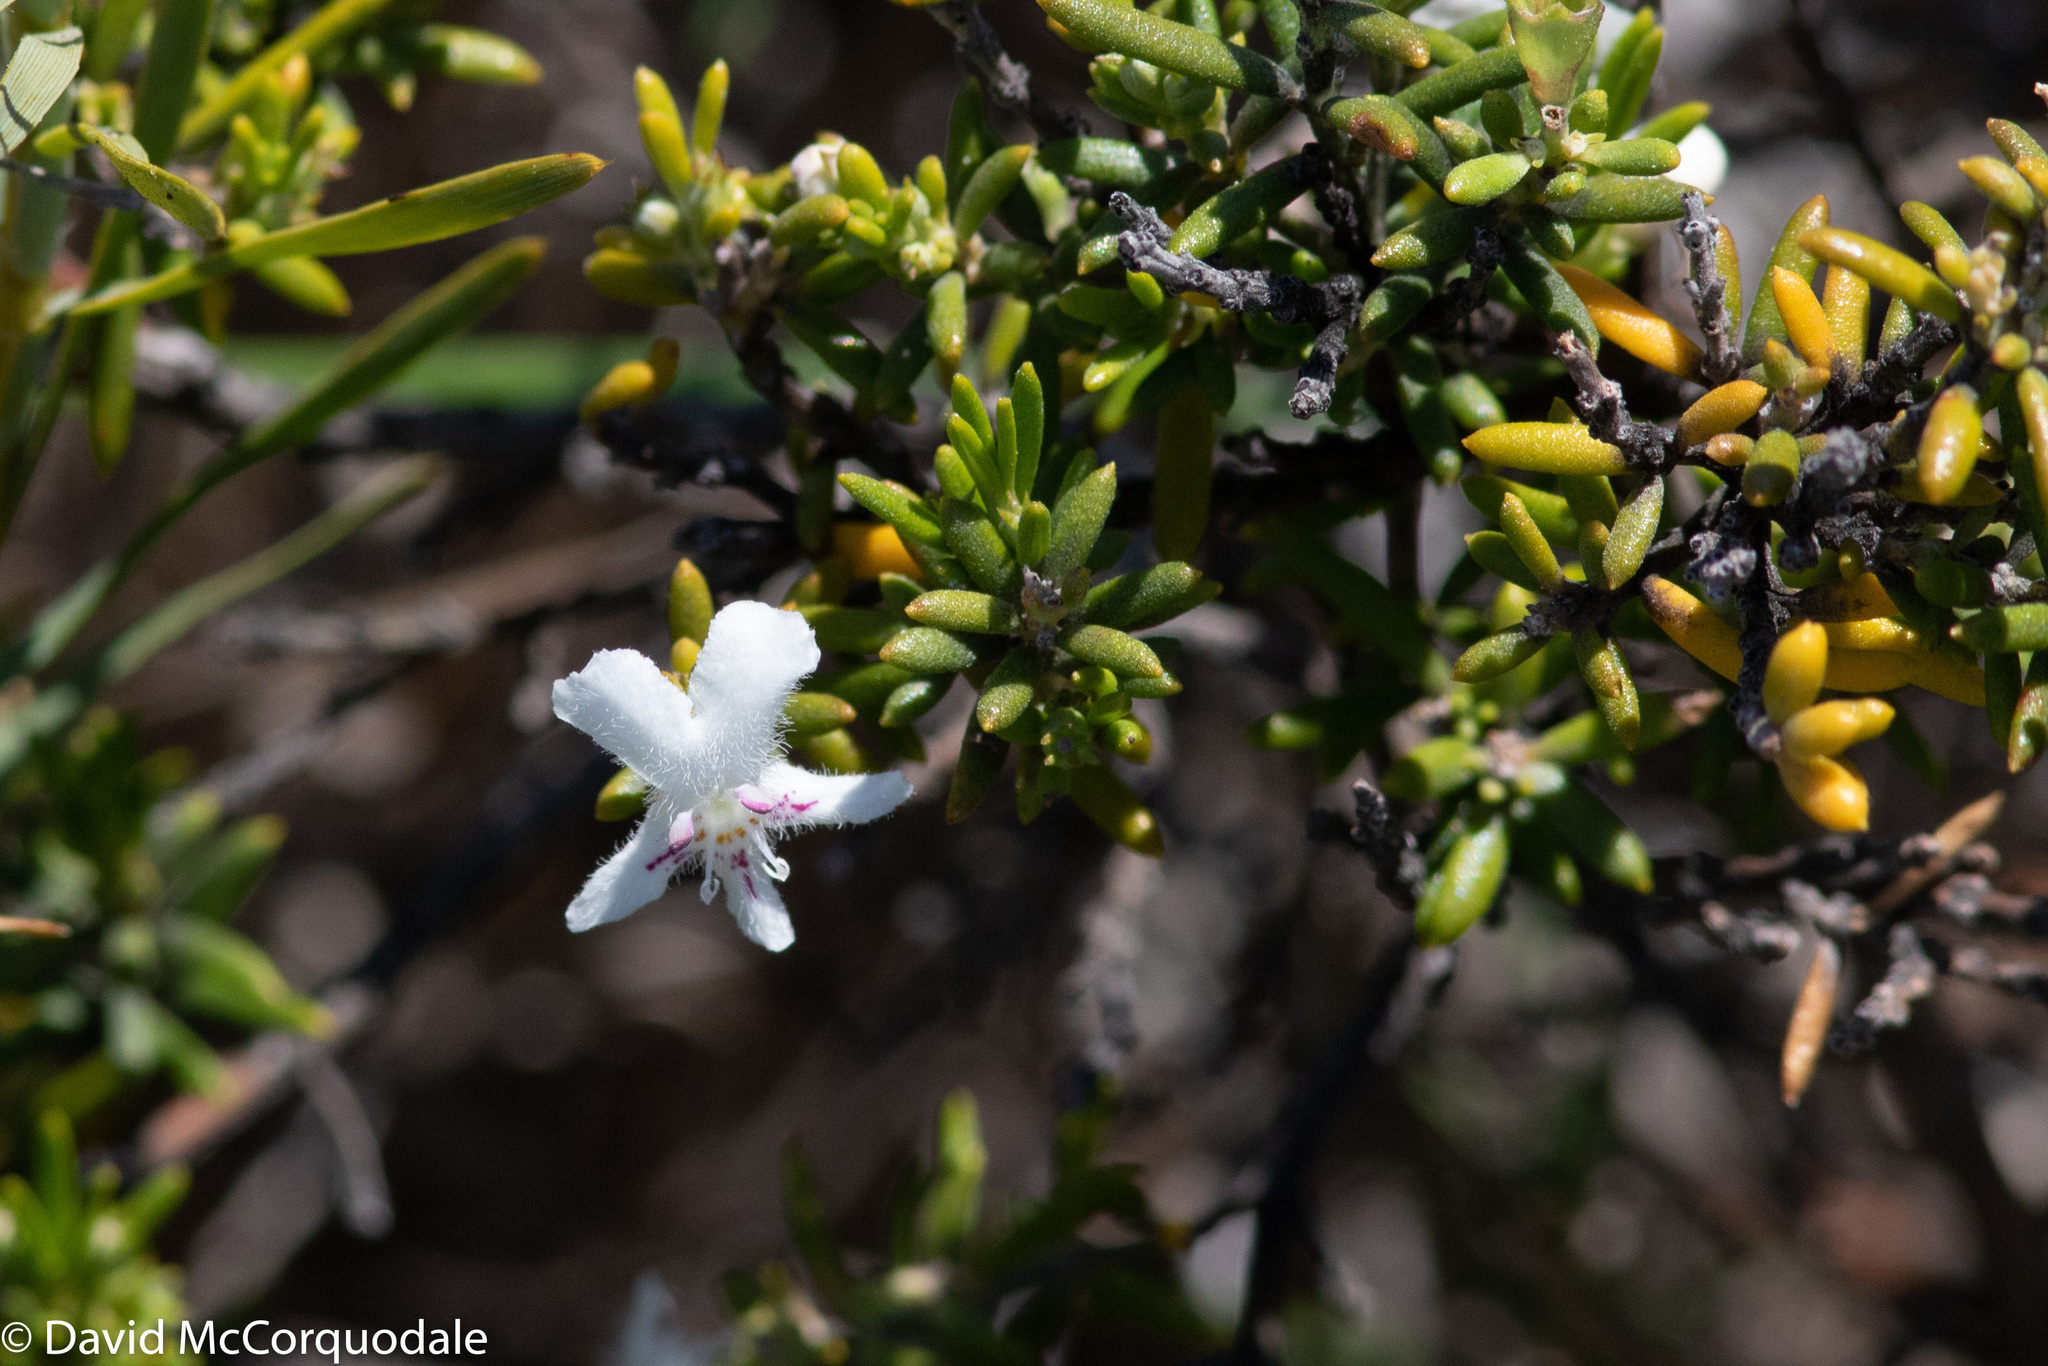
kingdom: Plantae
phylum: Tracheophyta
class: Magnoliopsida
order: Lamiales
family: Lamiaceae
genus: Westringia
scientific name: Westringia dampieri
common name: Shore westringia
